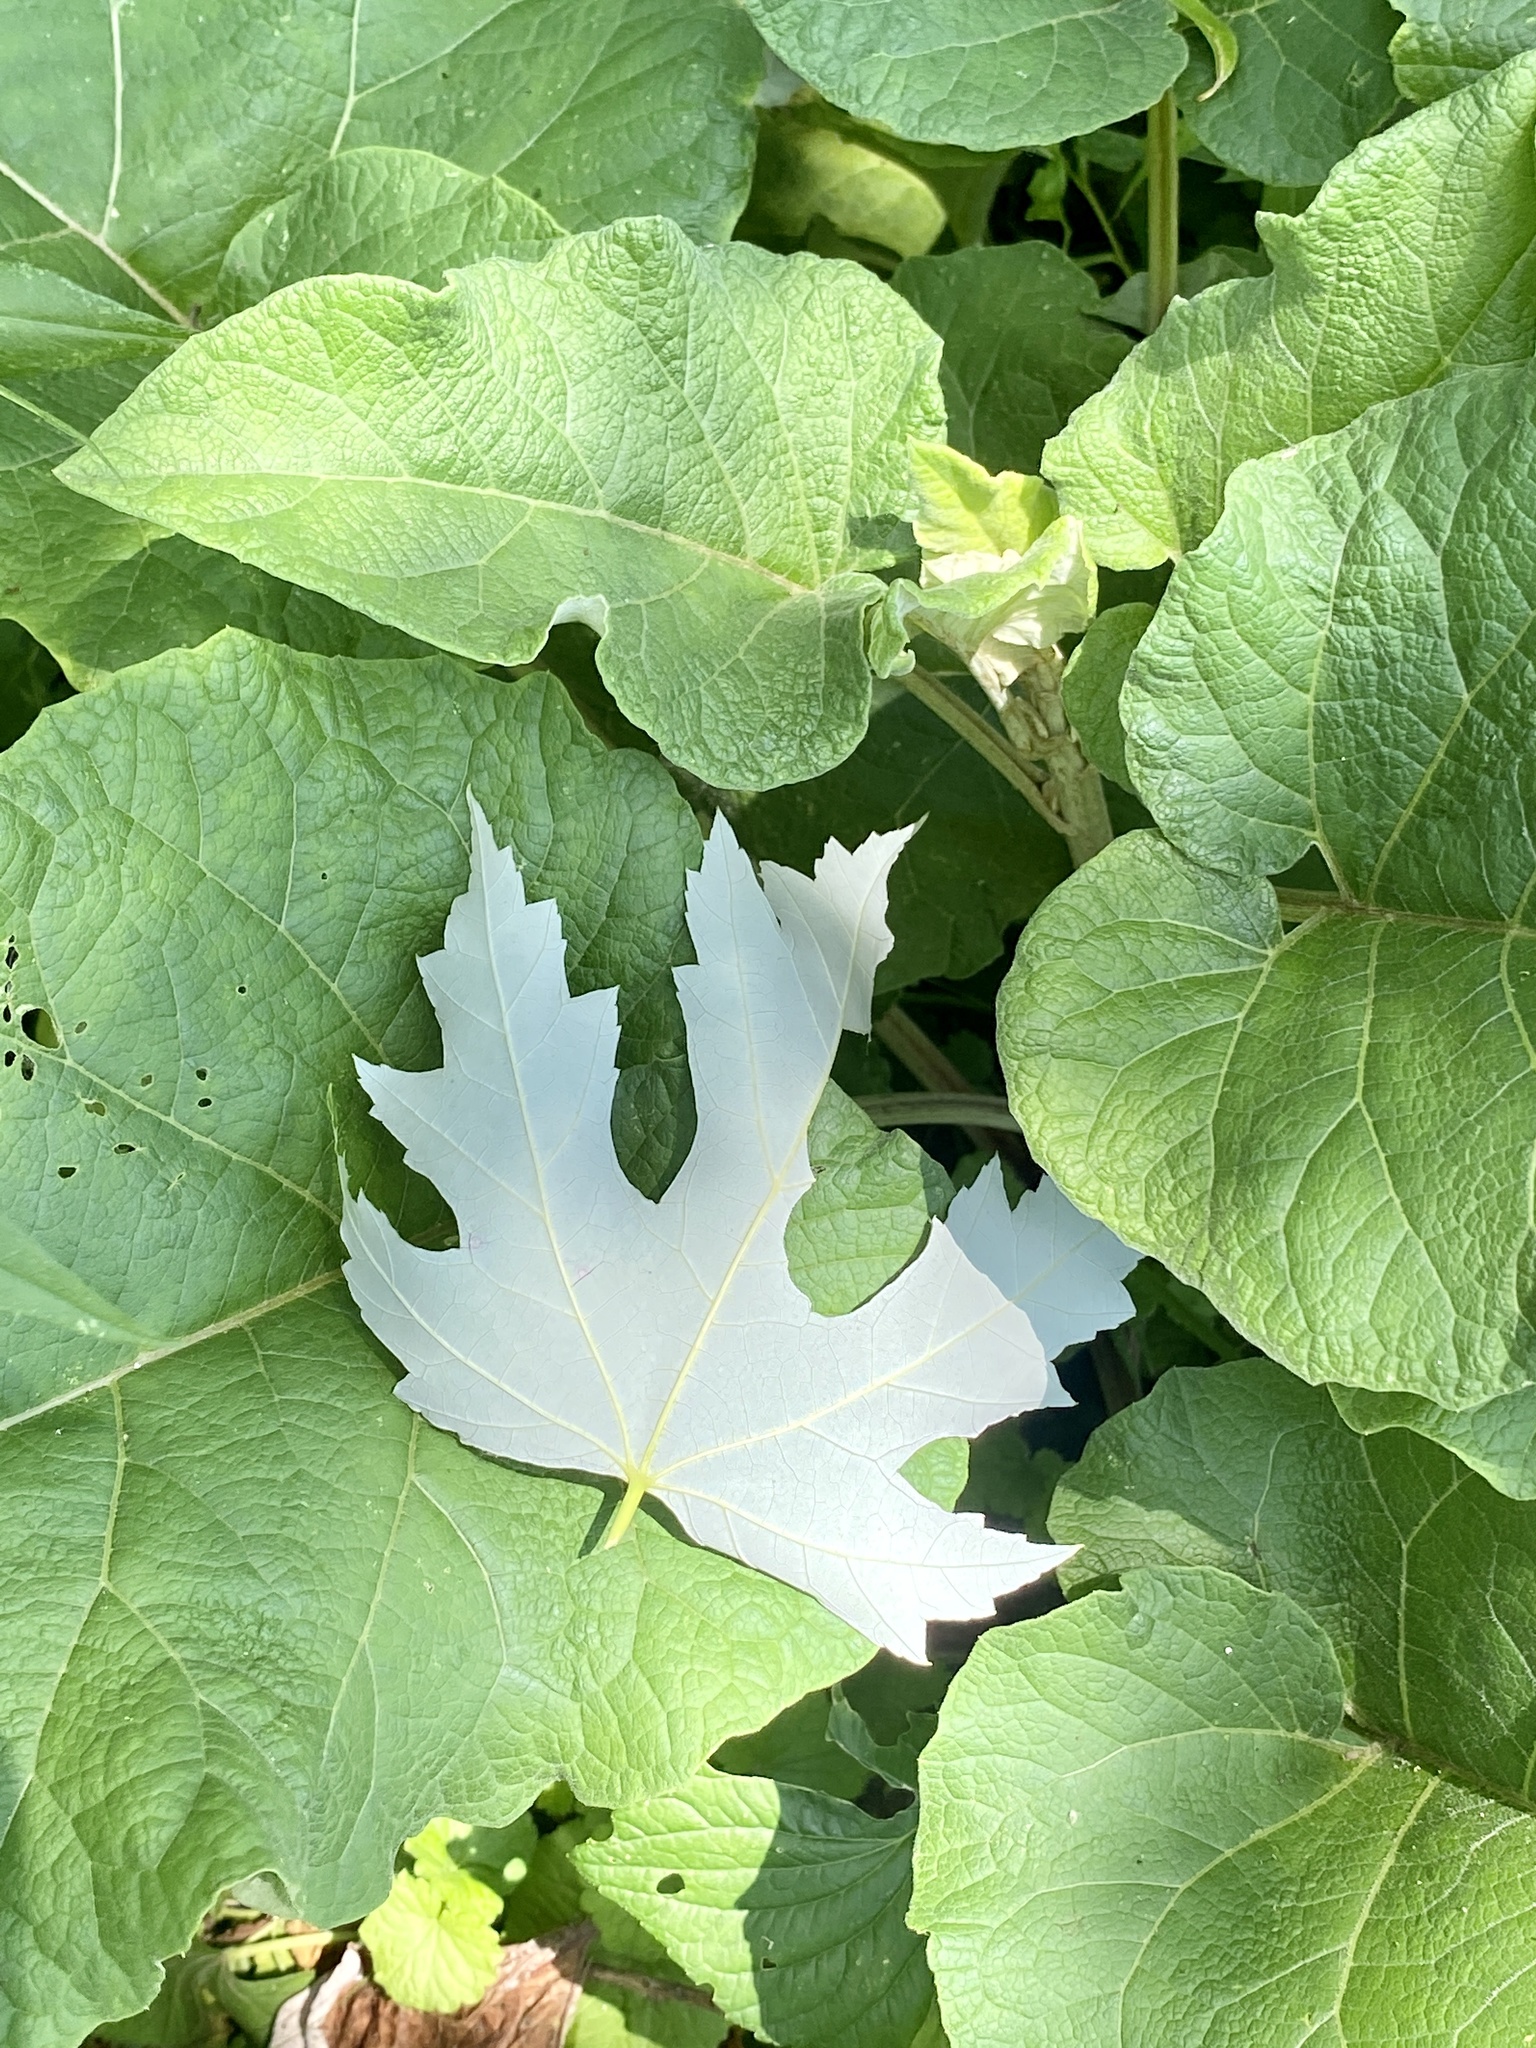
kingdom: Plantae
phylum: Tracheophyta
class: Magnoliopsida
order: Sapindales
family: Sapindaceae
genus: Acer
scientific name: Acer saccharinum
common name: Silver maple
